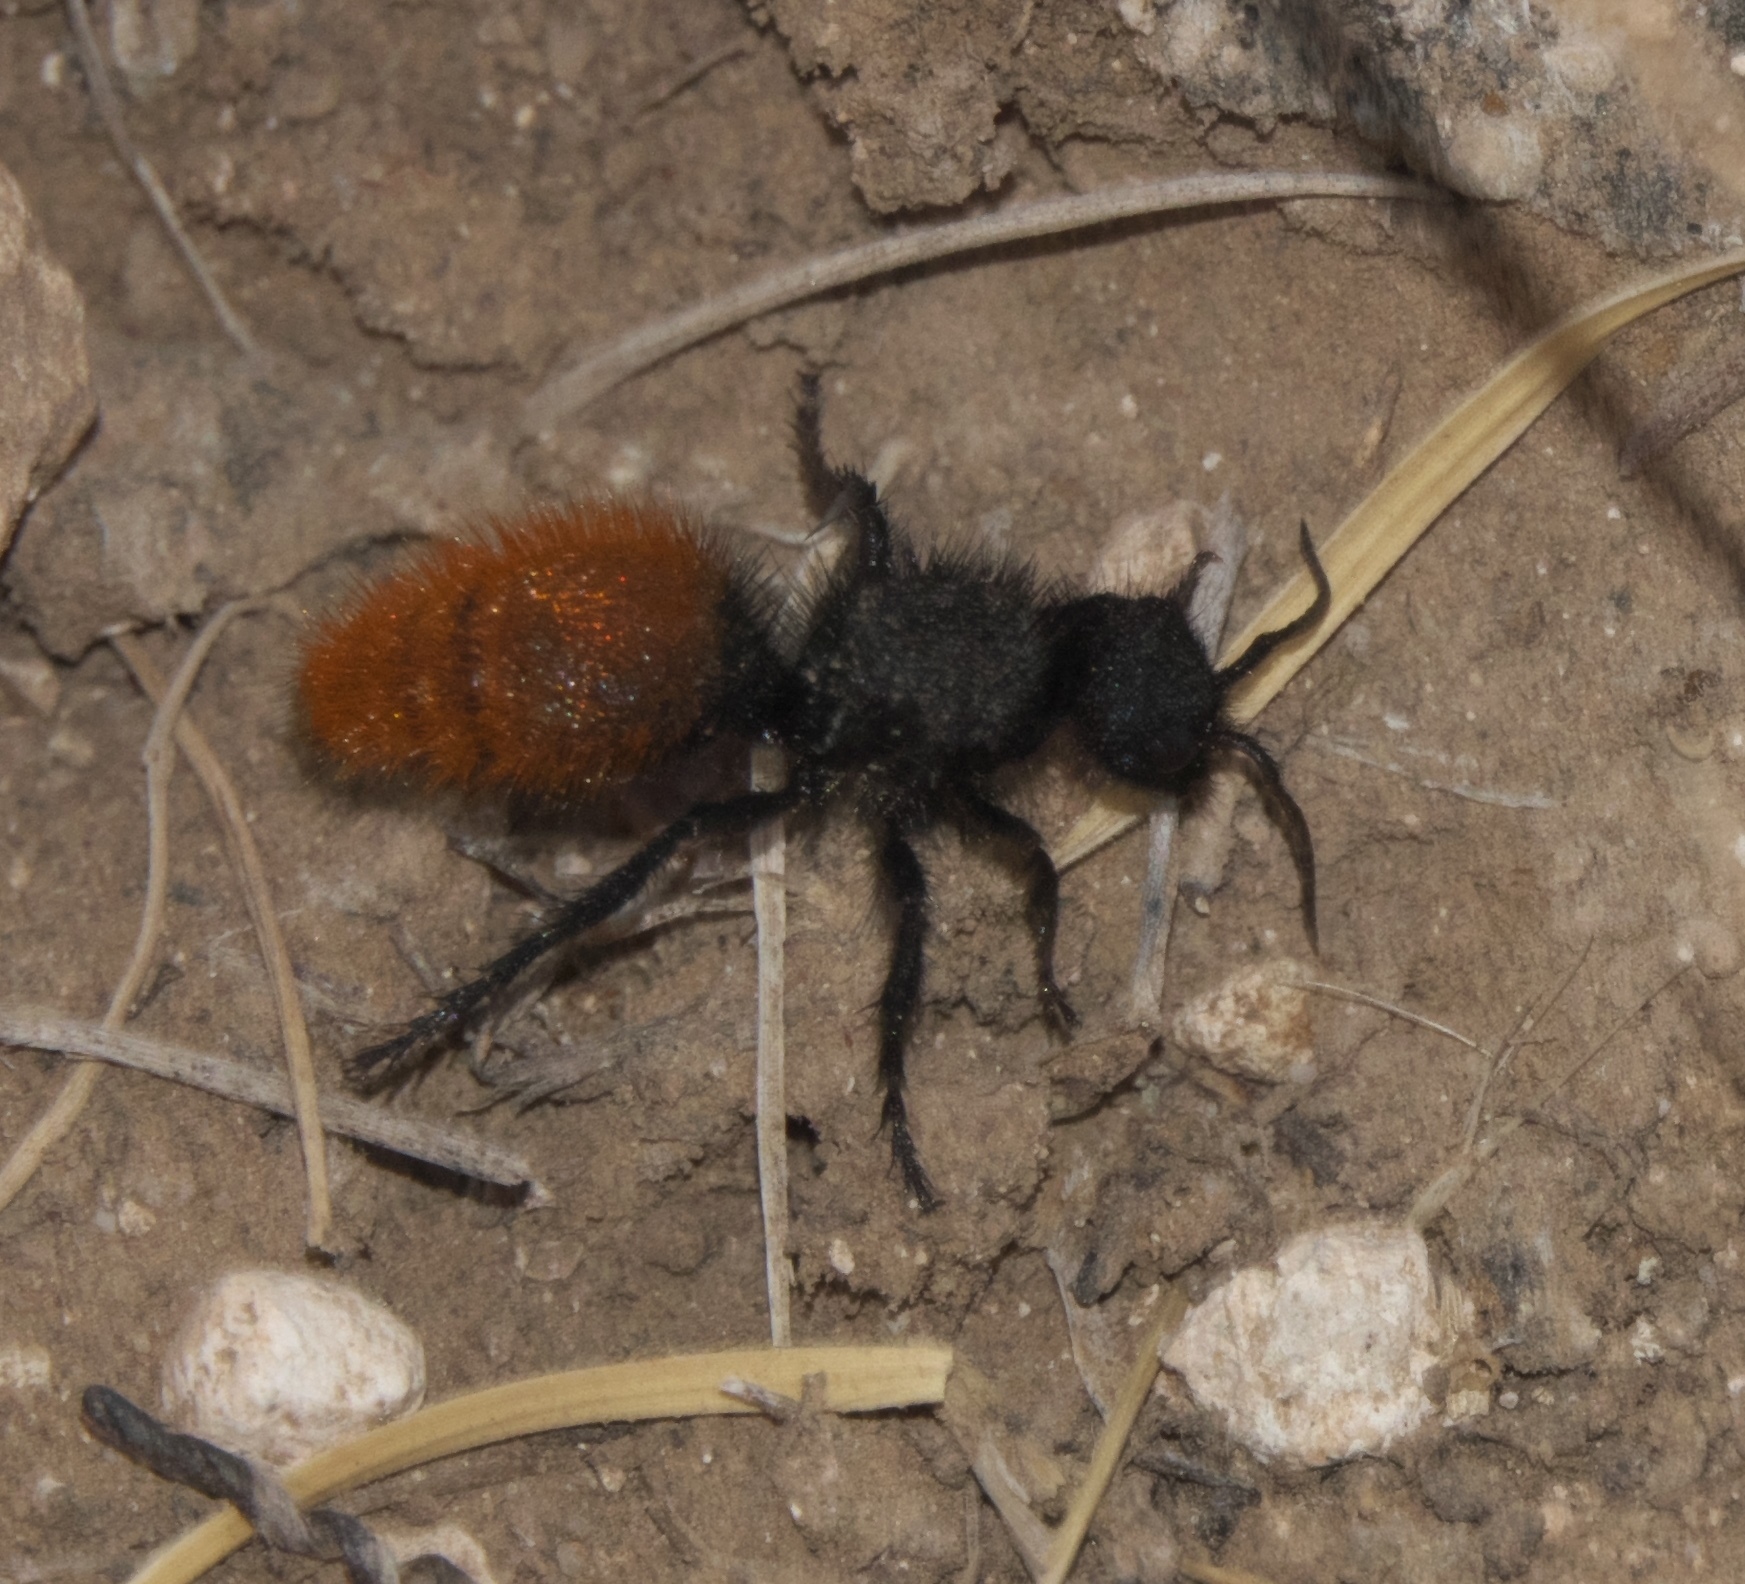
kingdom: Animalia
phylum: Arthropoda
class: Insecta
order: Hymenoptera
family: Mutillidae
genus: Dasymutilla
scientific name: Dasymutilla gorgon
